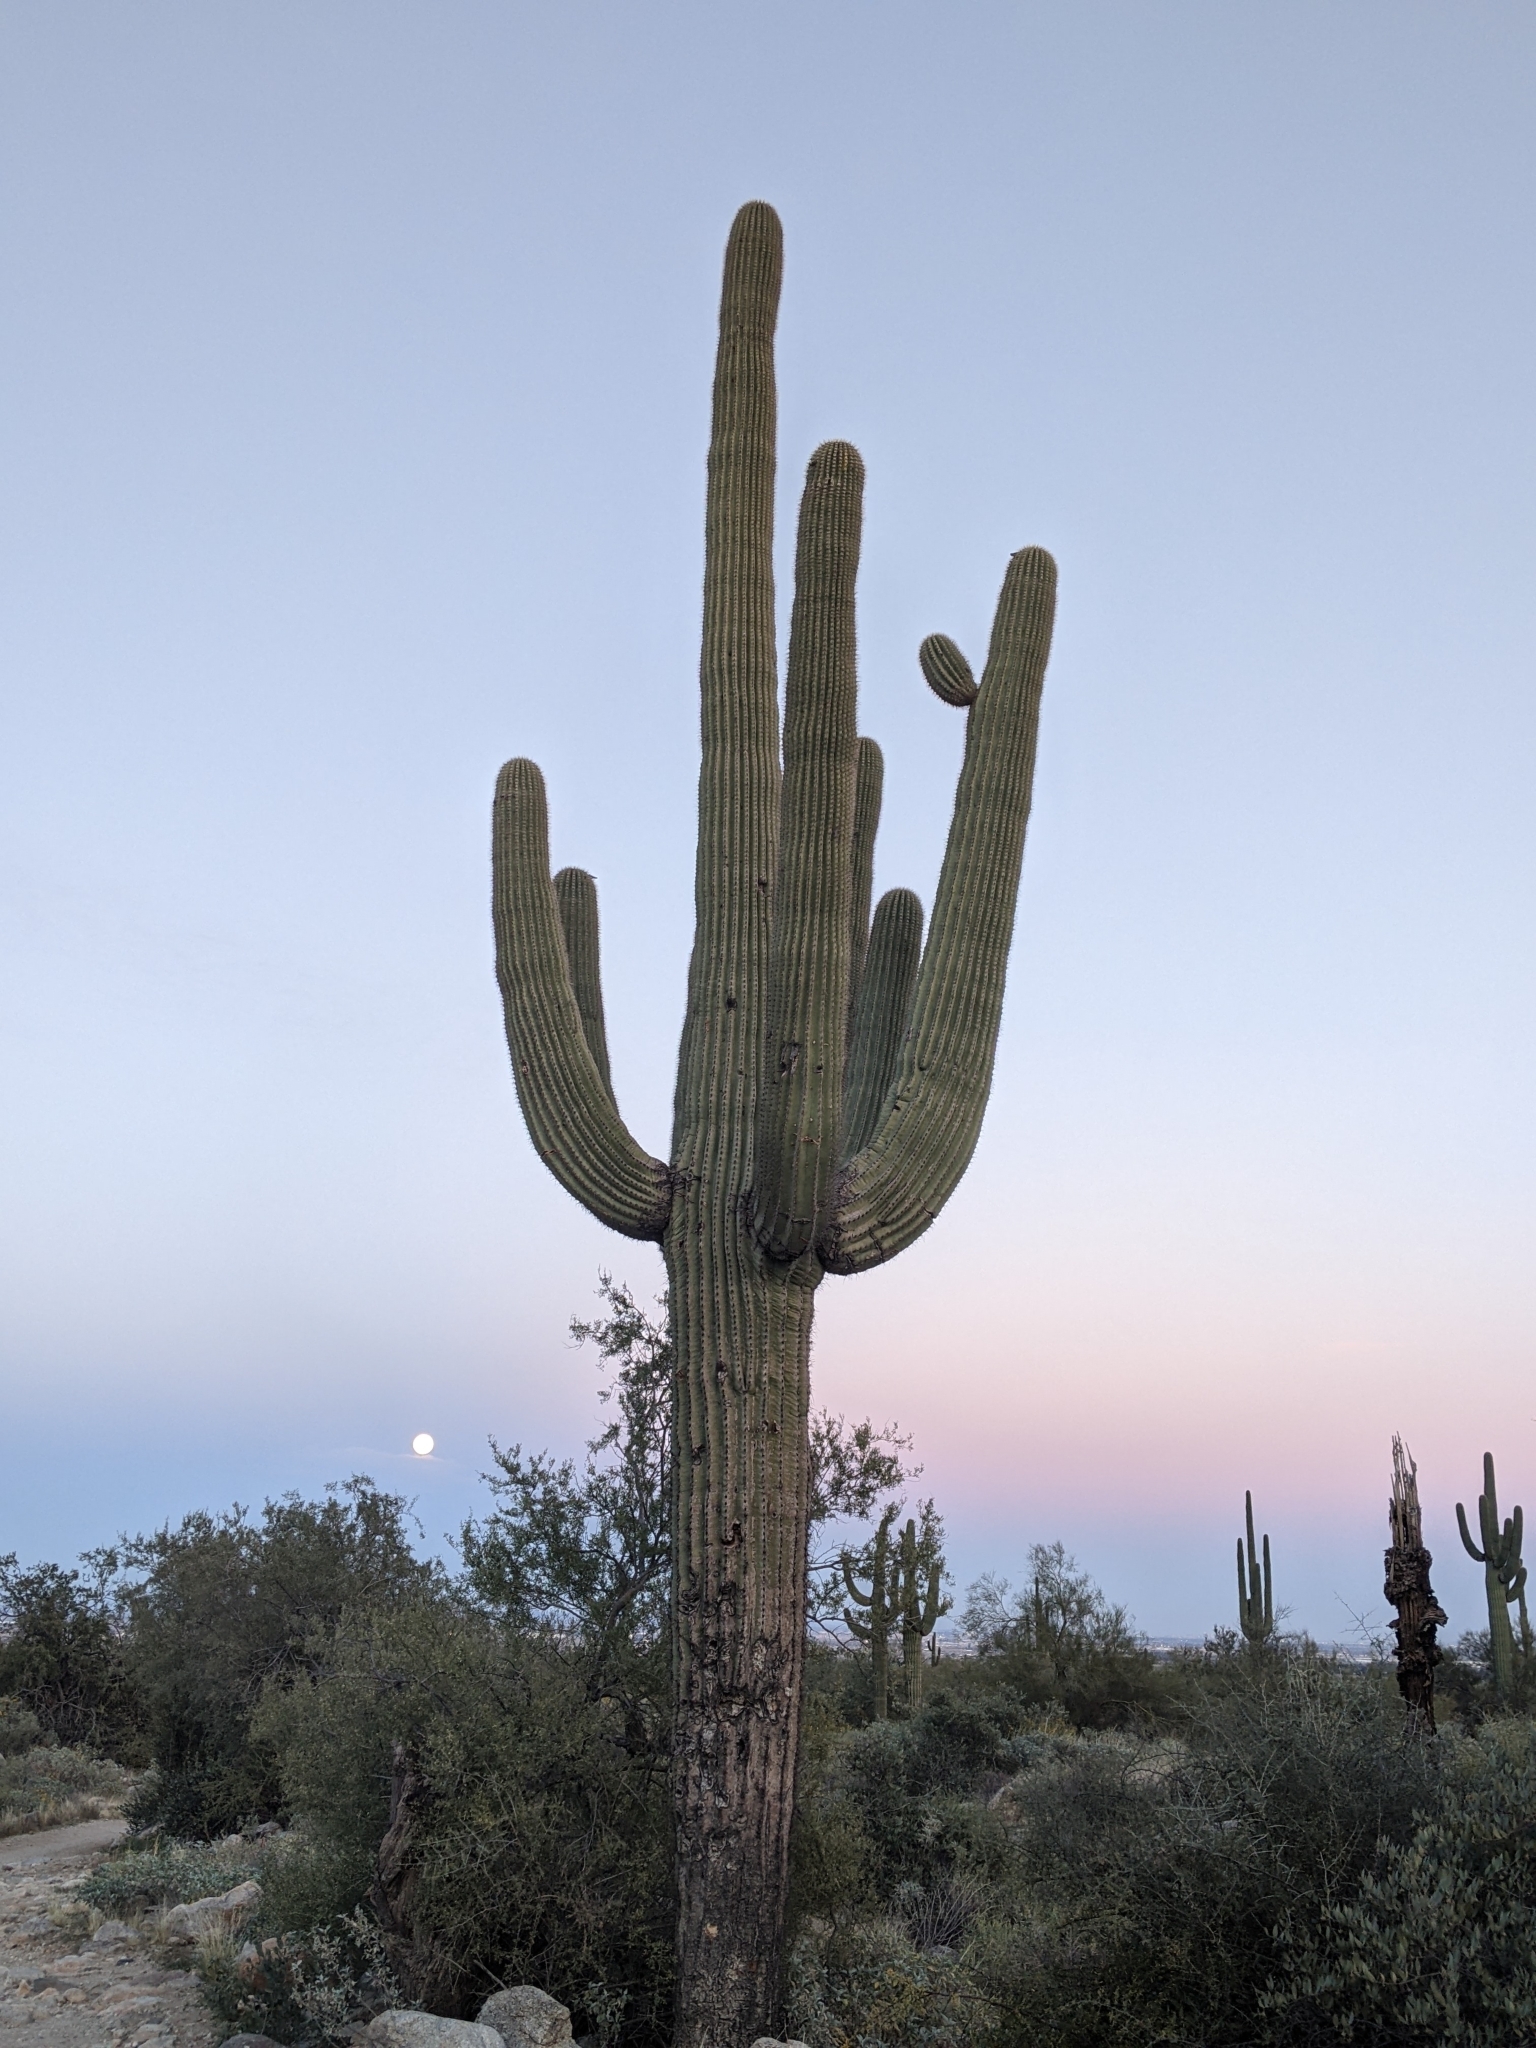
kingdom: Plantae
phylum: Tracheophyta
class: Magnoliopsida
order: Caryophyllales
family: Cactaceae
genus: Carnegiea
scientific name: Carnegiea gigantea
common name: Saguaro
